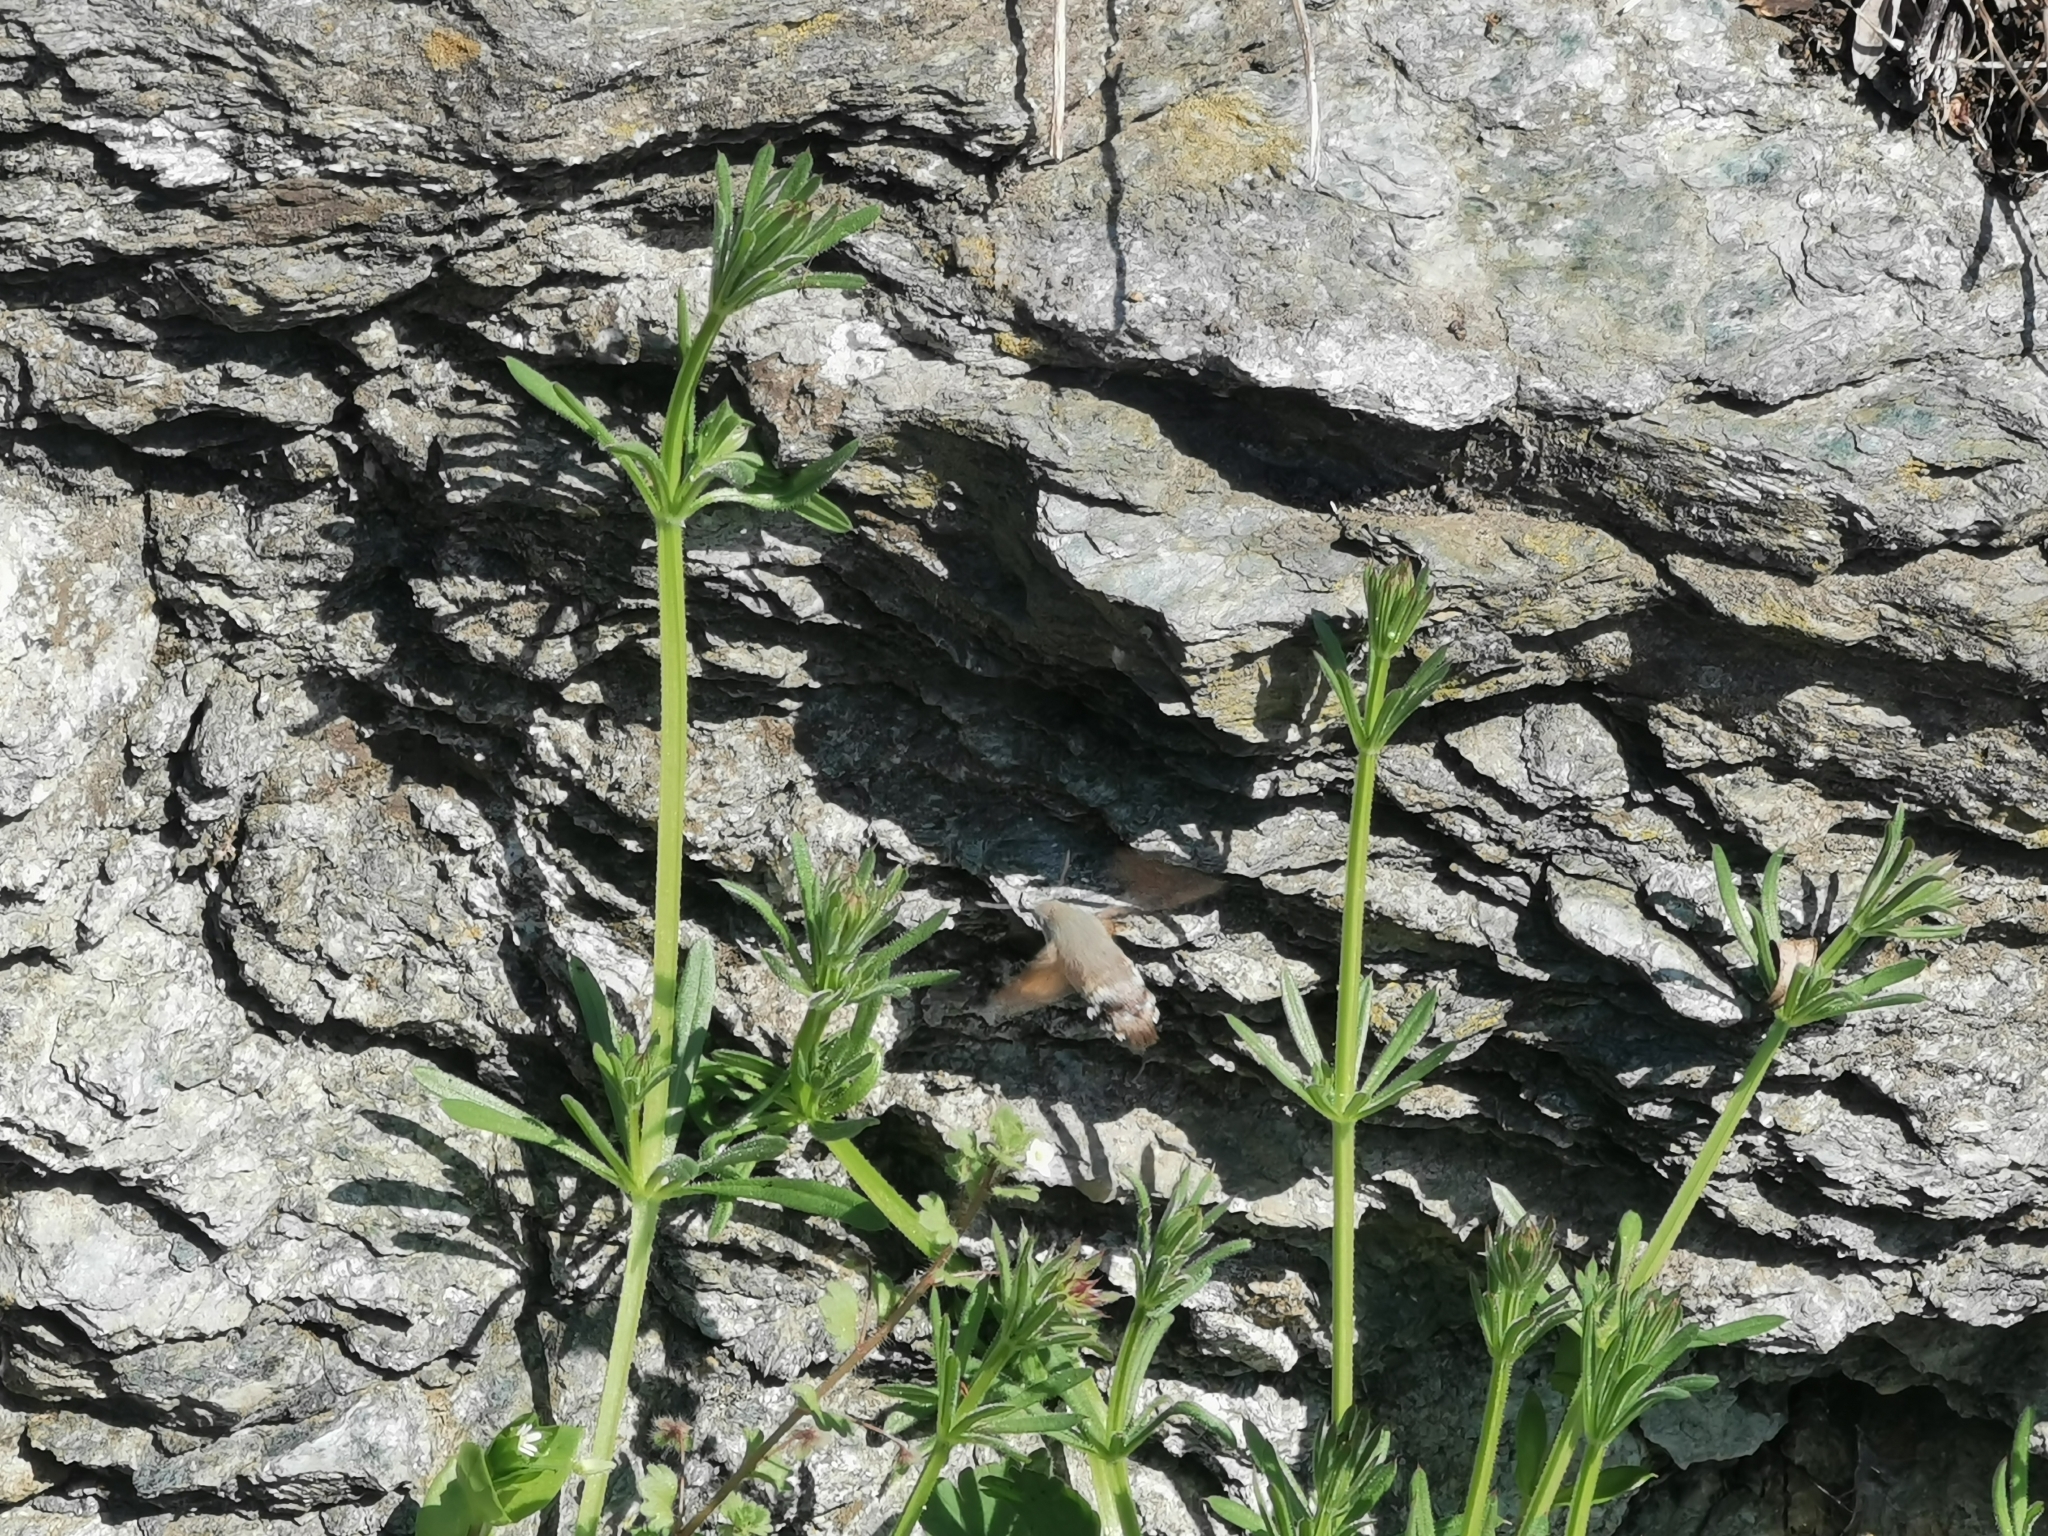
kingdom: Animalia
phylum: Arthropoda
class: Insecta
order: Lepidoptera
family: Sphingidae
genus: Macroglossum
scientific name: Macroglossum stellatarum
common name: Humming-bird hawk-moth
